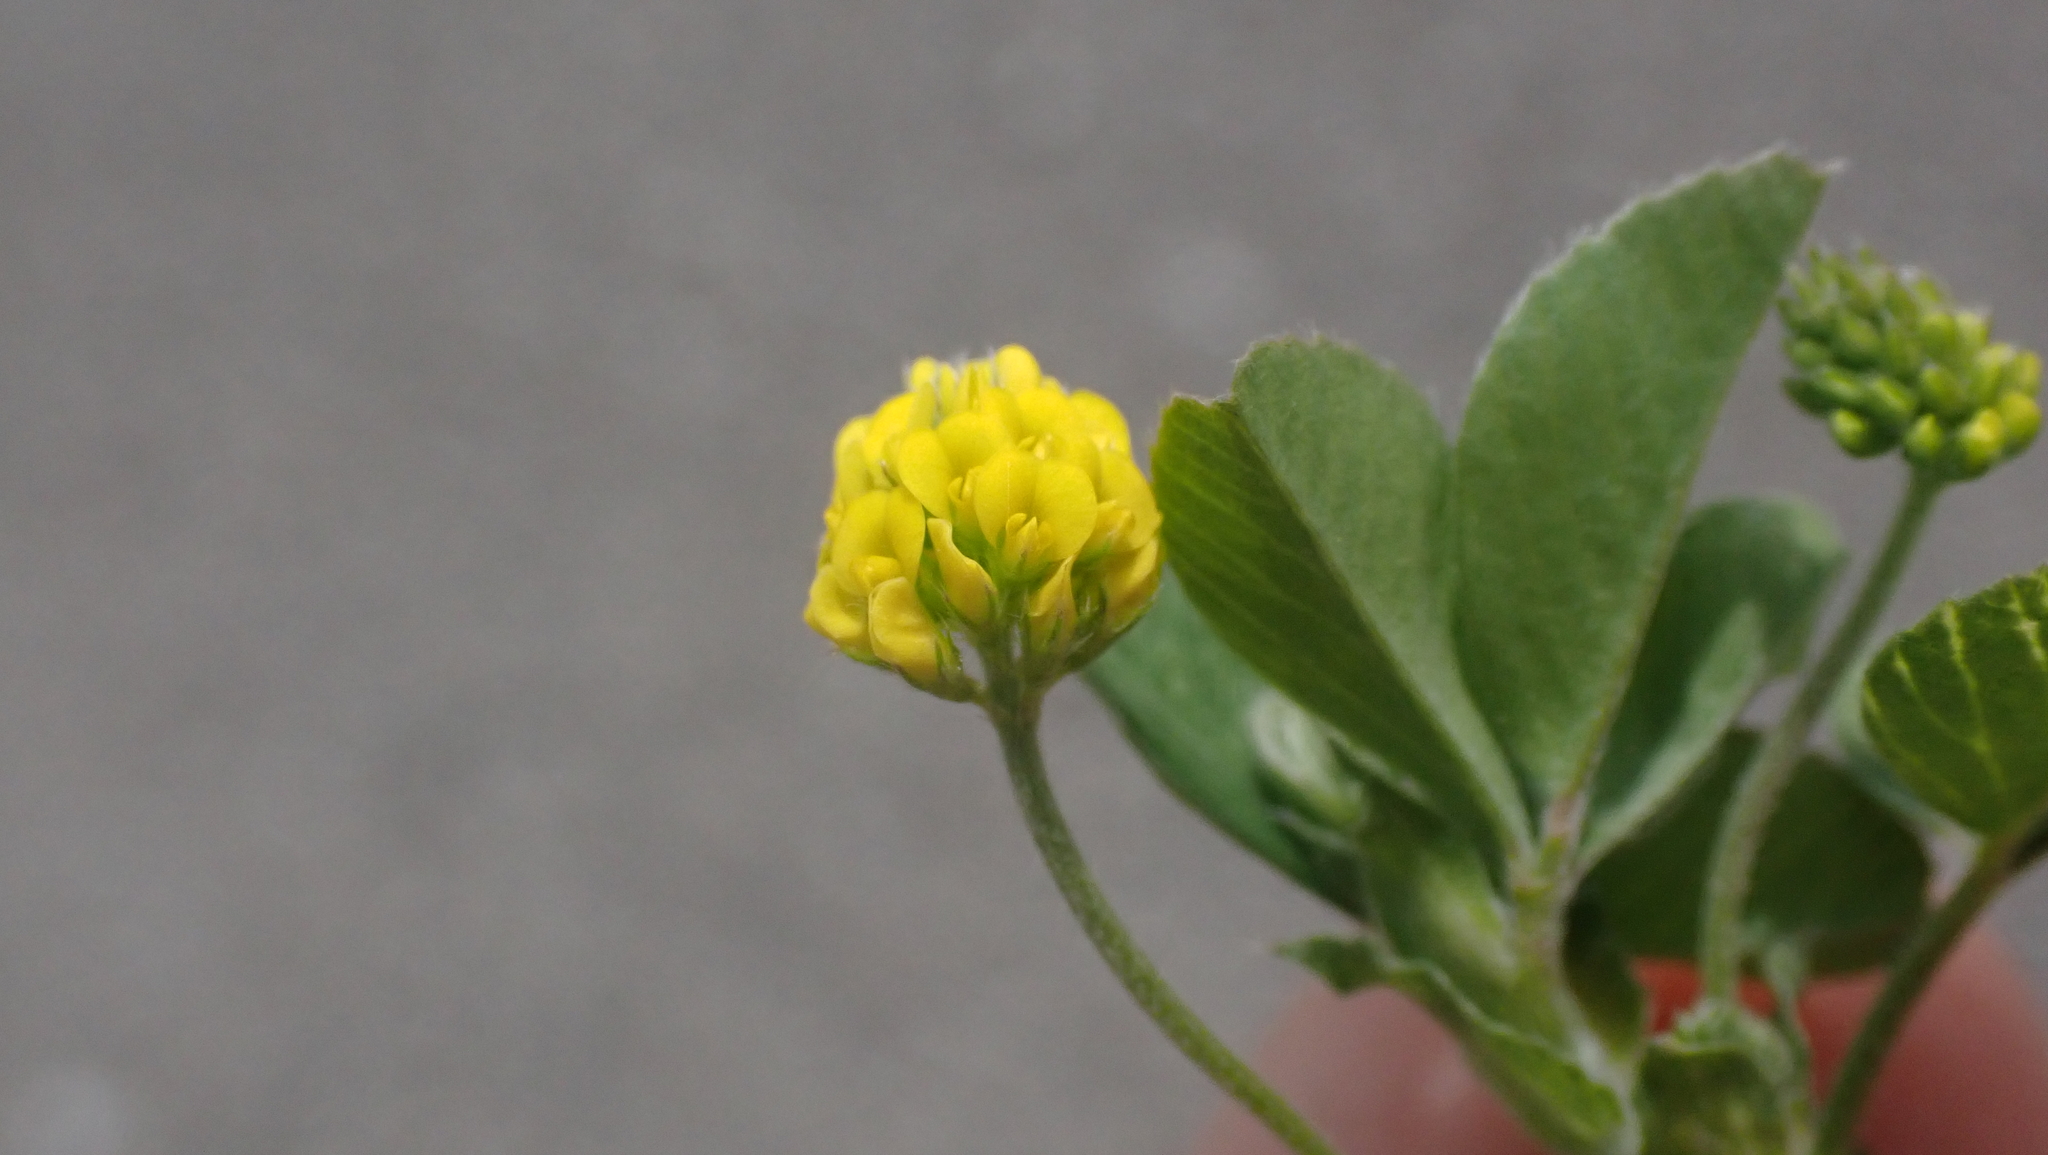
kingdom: Plantae
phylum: Tracheophyta
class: Magnoliopsida
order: Fabales
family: Fabaceae
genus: Medicago
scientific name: Medicago lupulina
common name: Black medick
